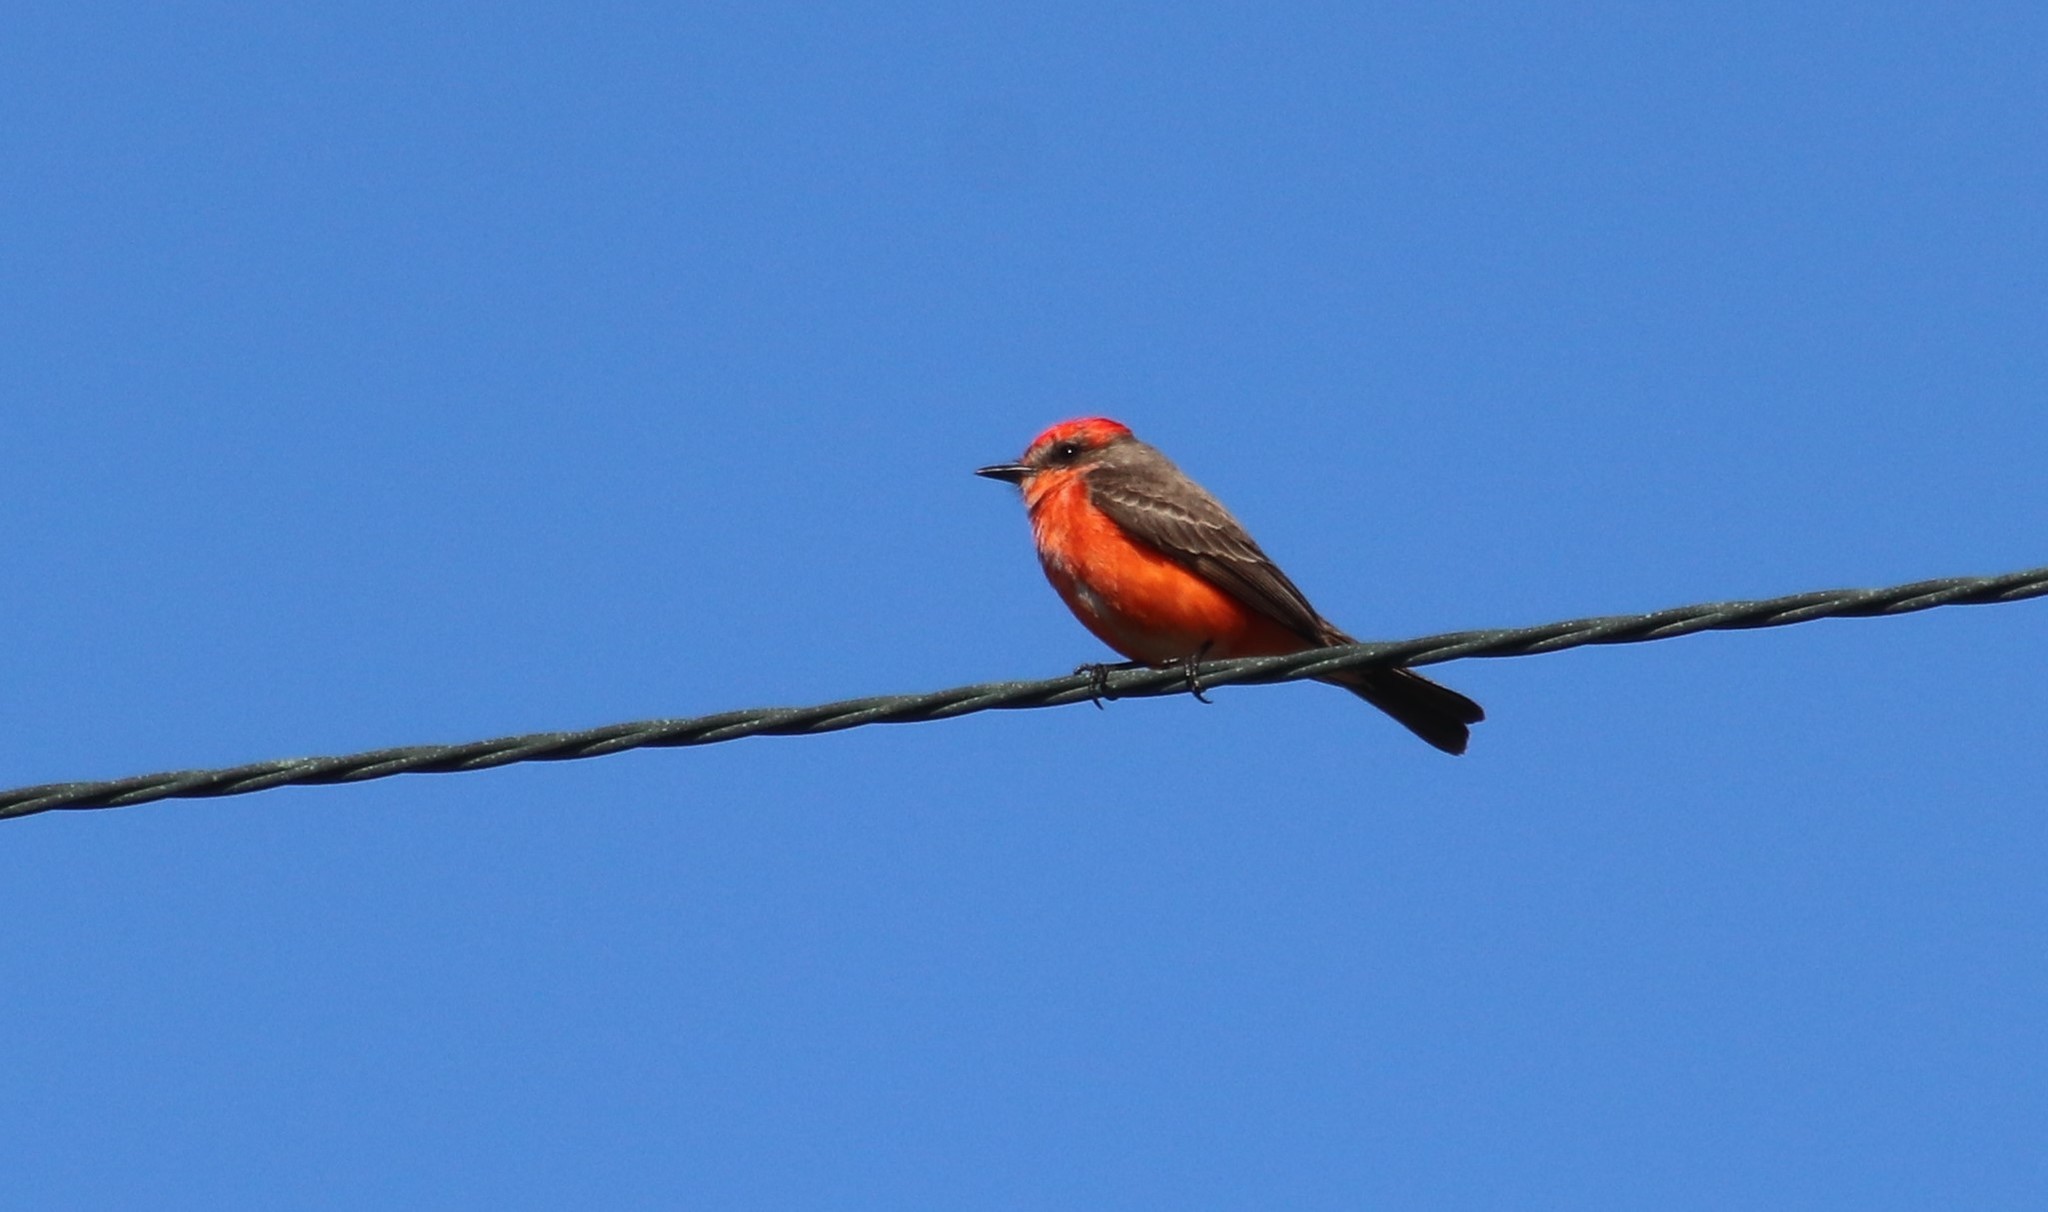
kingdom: Animalia
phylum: Chordata
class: Aves
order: Passeriformes
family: Tyrannidae
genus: Pyrocephalus
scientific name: Pyrocephalus rubinus
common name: Vermilion flycatcher
